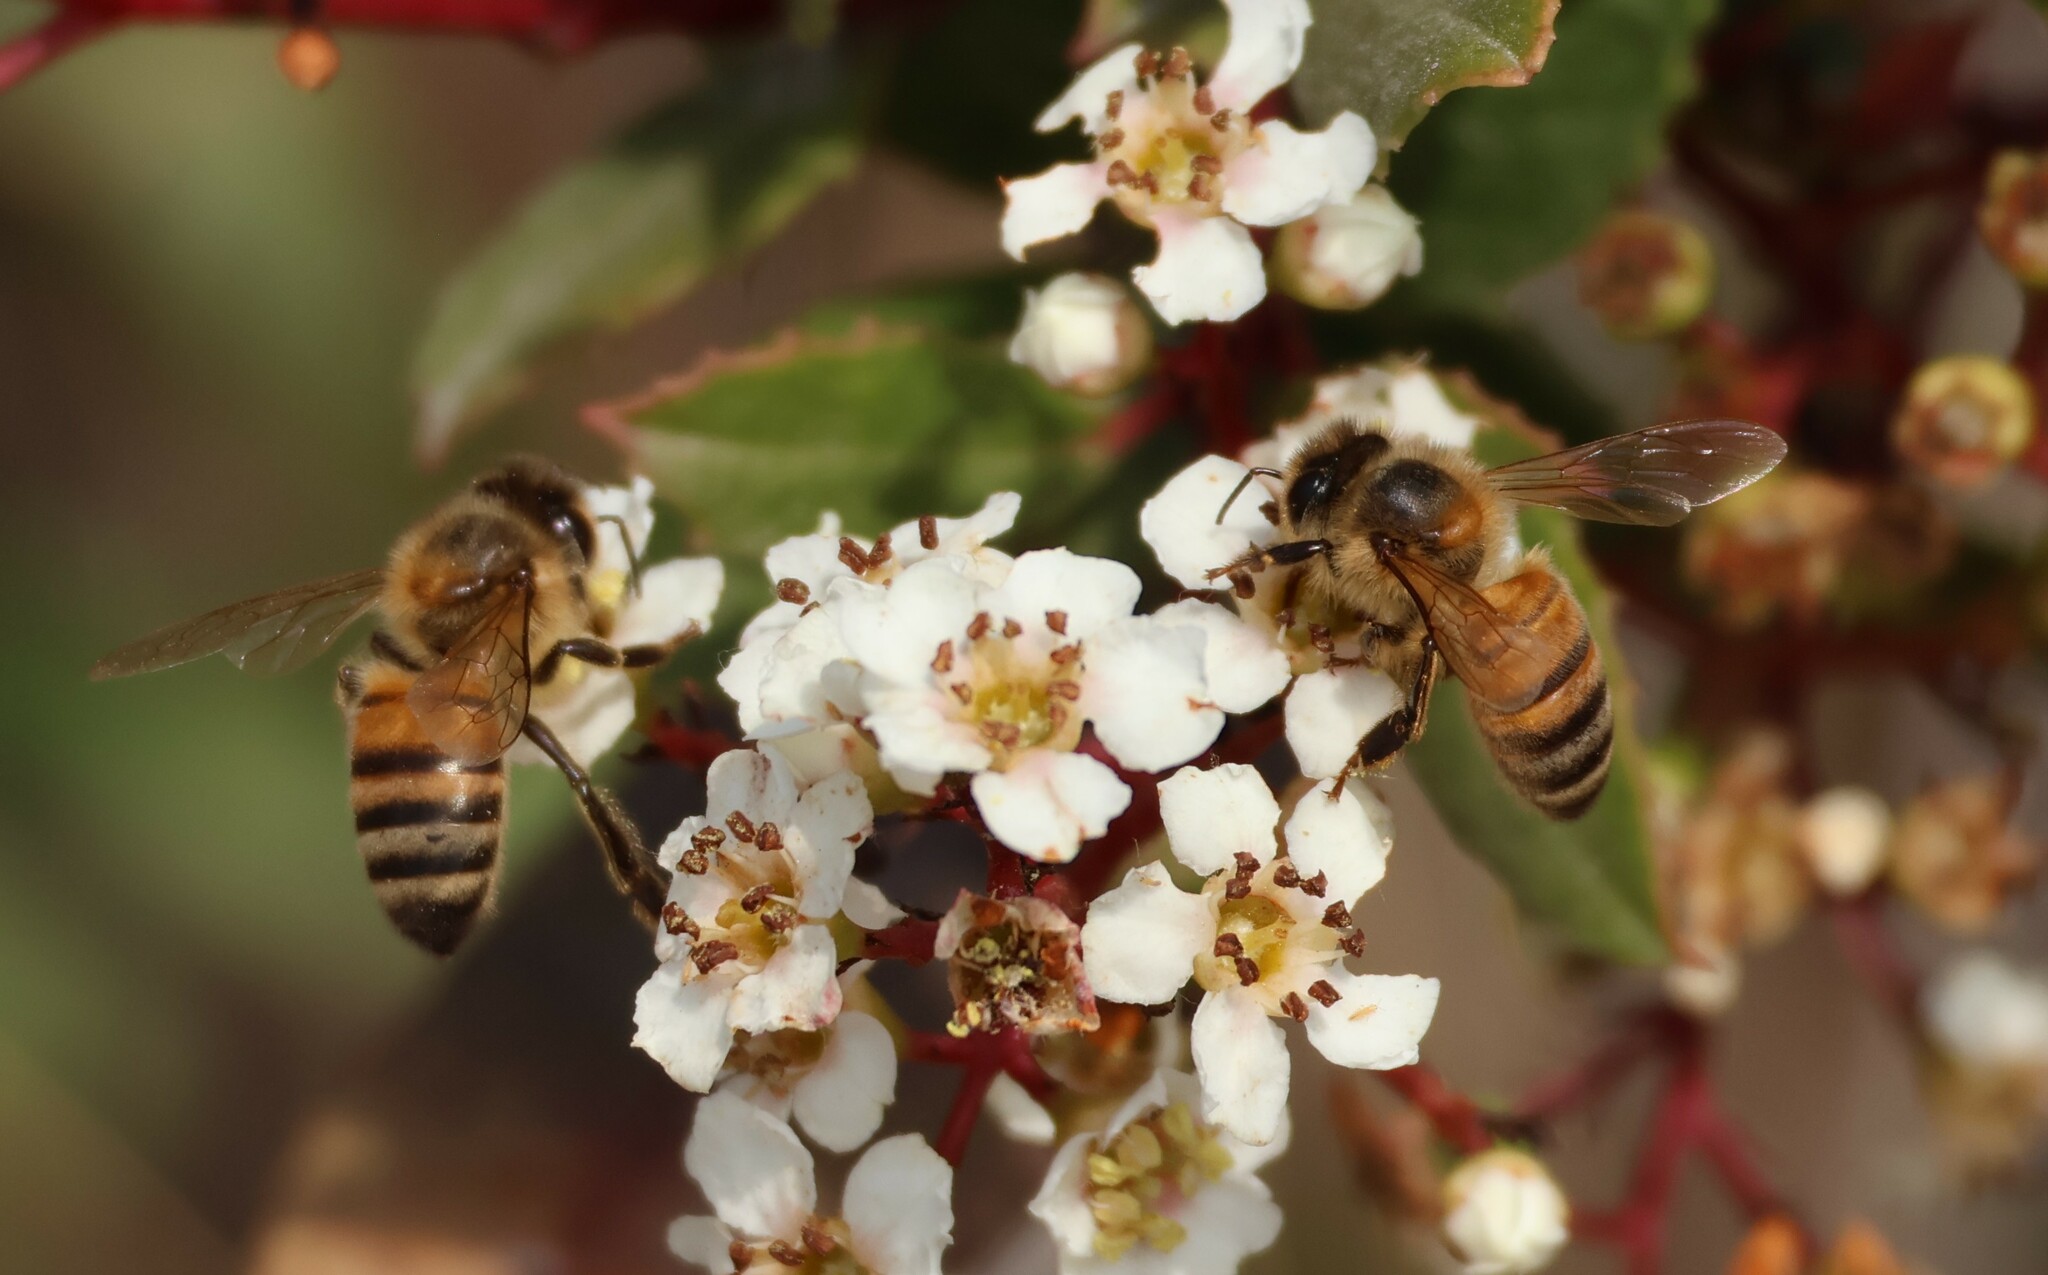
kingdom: Animalia
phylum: Arthropoda
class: Insecta
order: Hymenoptera
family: Apidae
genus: Apis
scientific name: Apis mellifera
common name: Honey bee
